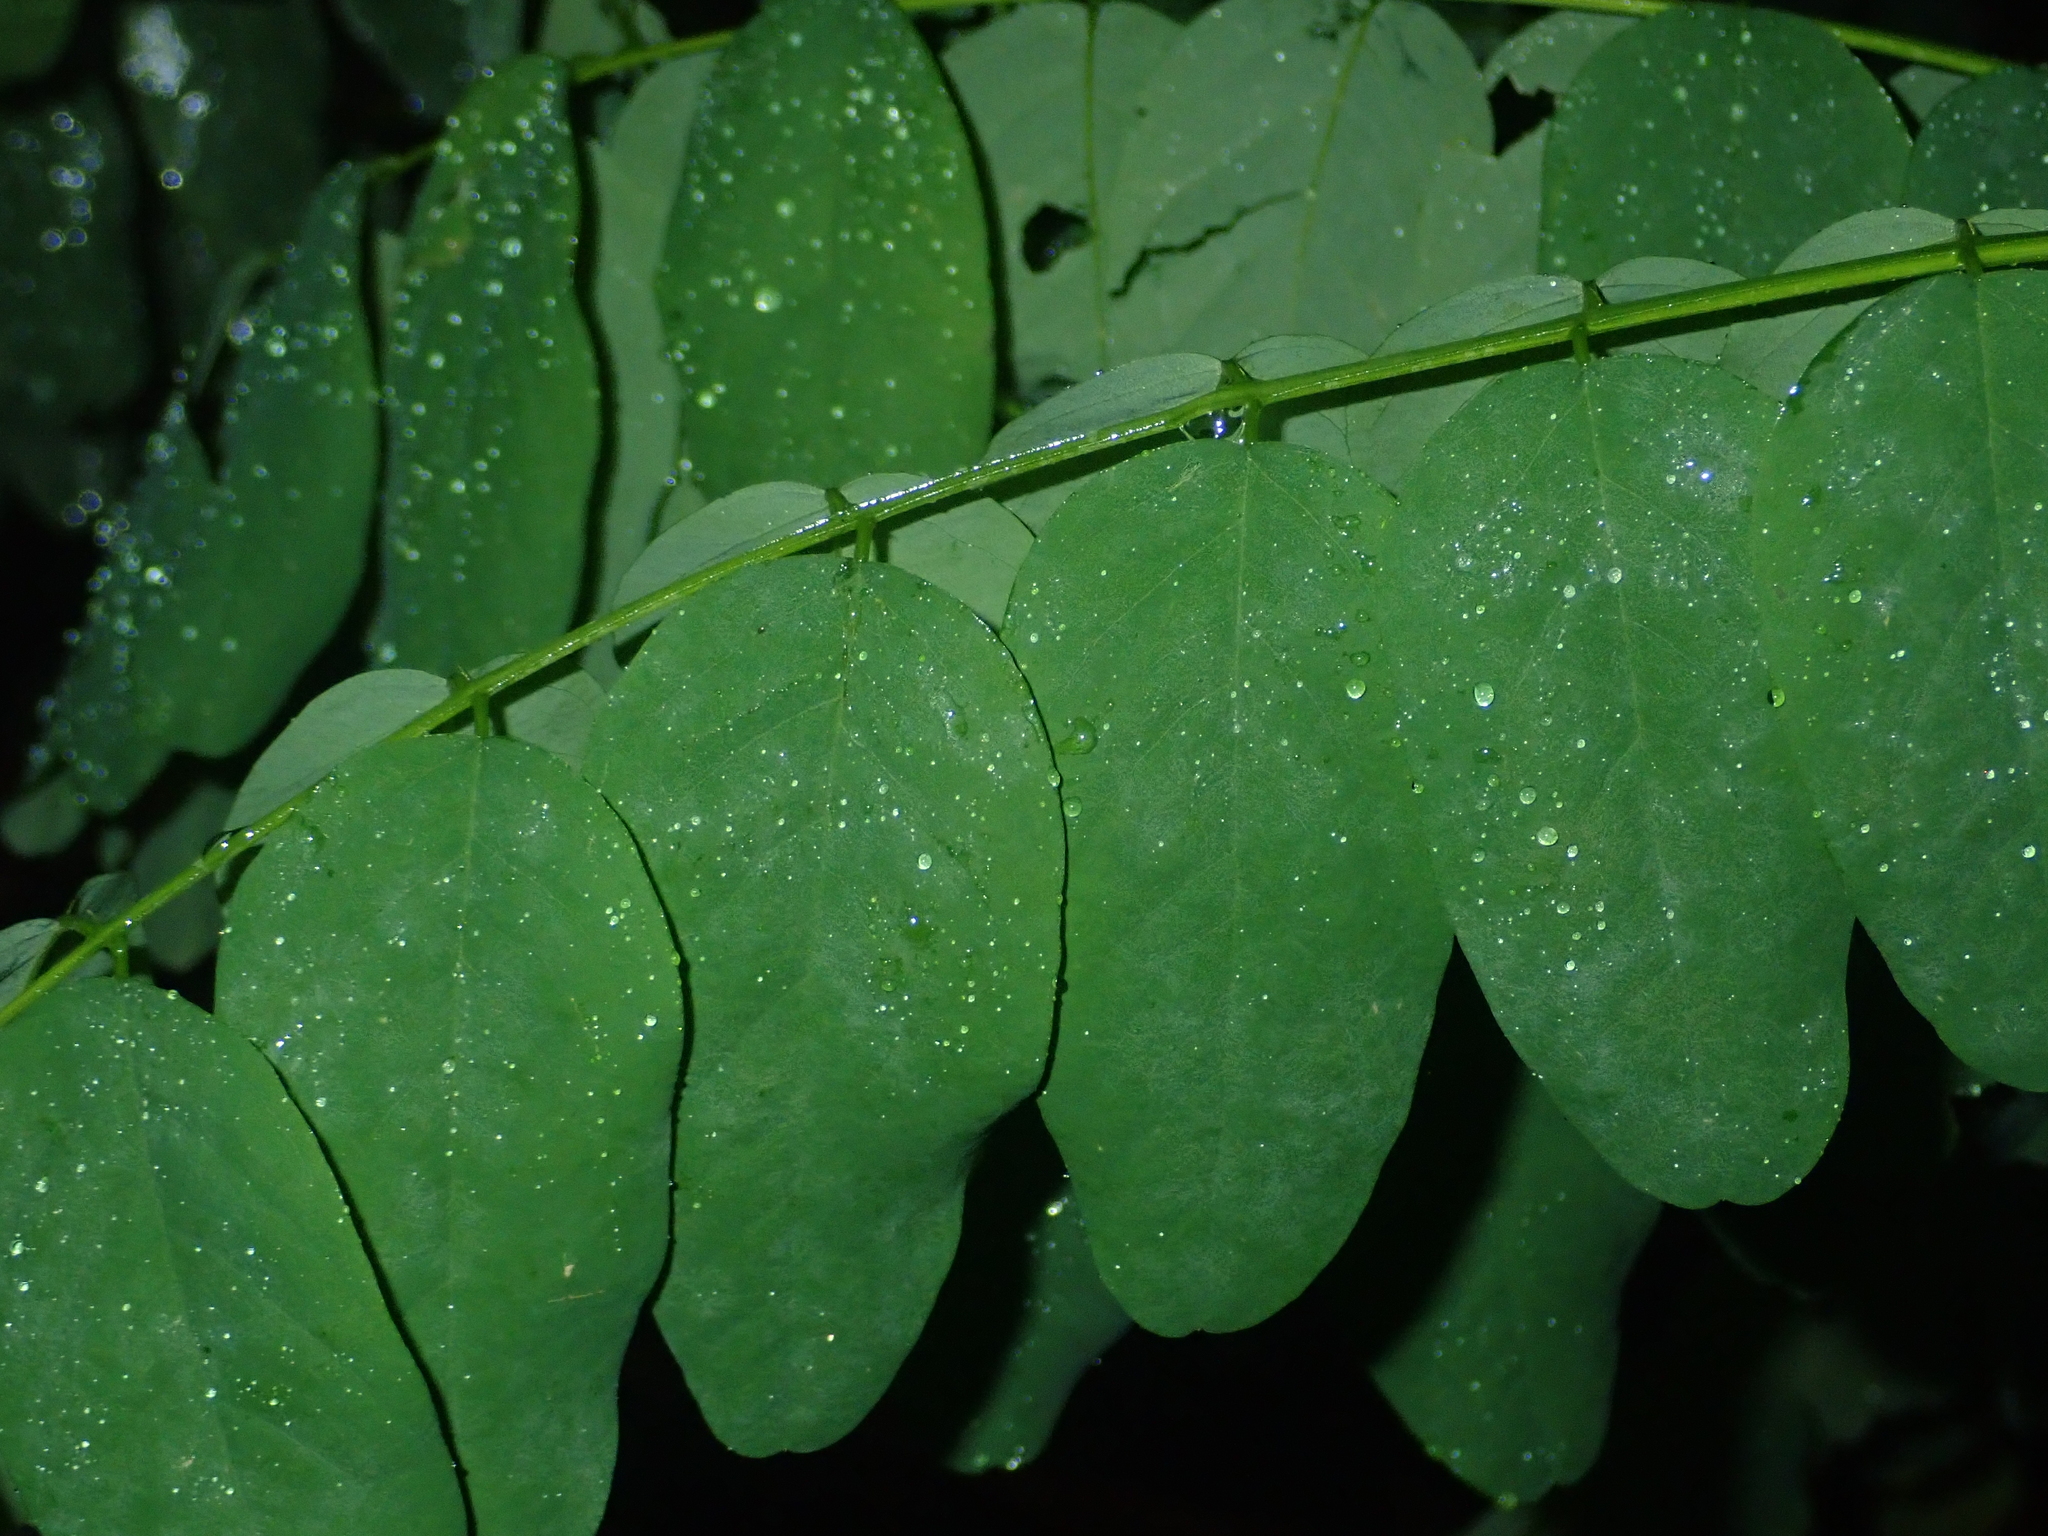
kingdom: Plantae
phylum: Tracheophyta
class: Magnoliopsida
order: Fabales
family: Fabaceae
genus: Robinia
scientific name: Robinia pseudoacacia
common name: Black locust
